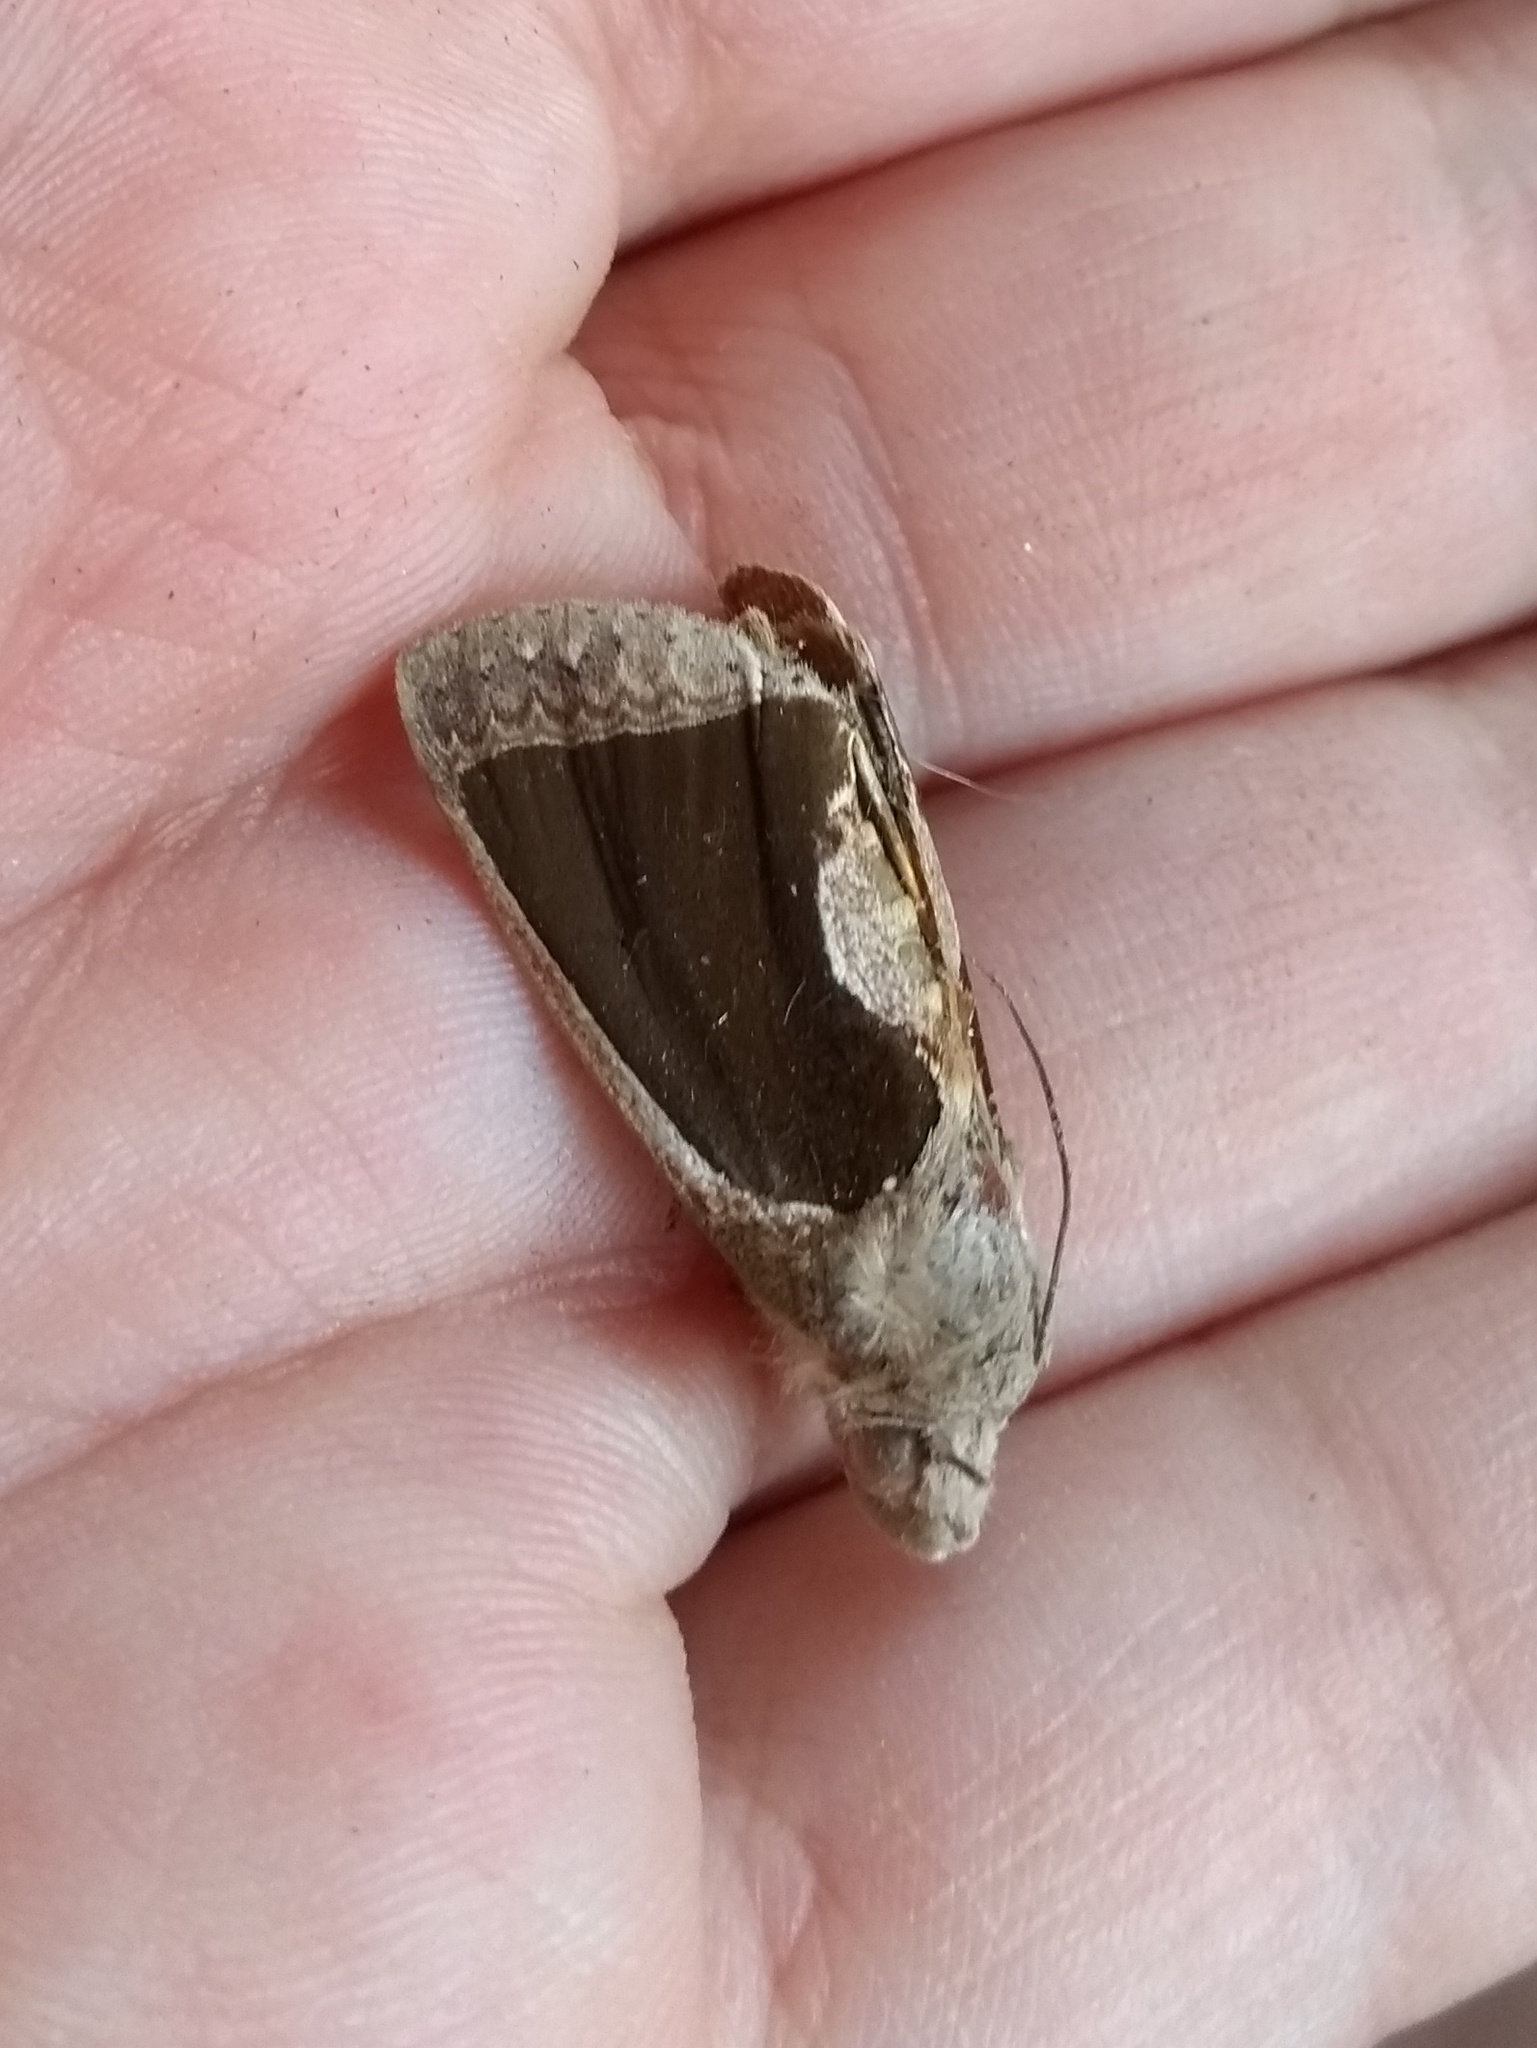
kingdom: Animalia
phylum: Arthropoda
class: Insecta
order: Lepidoptera
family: Erebidae
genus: Gonodonta
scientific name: Gonodonta sinaldus
